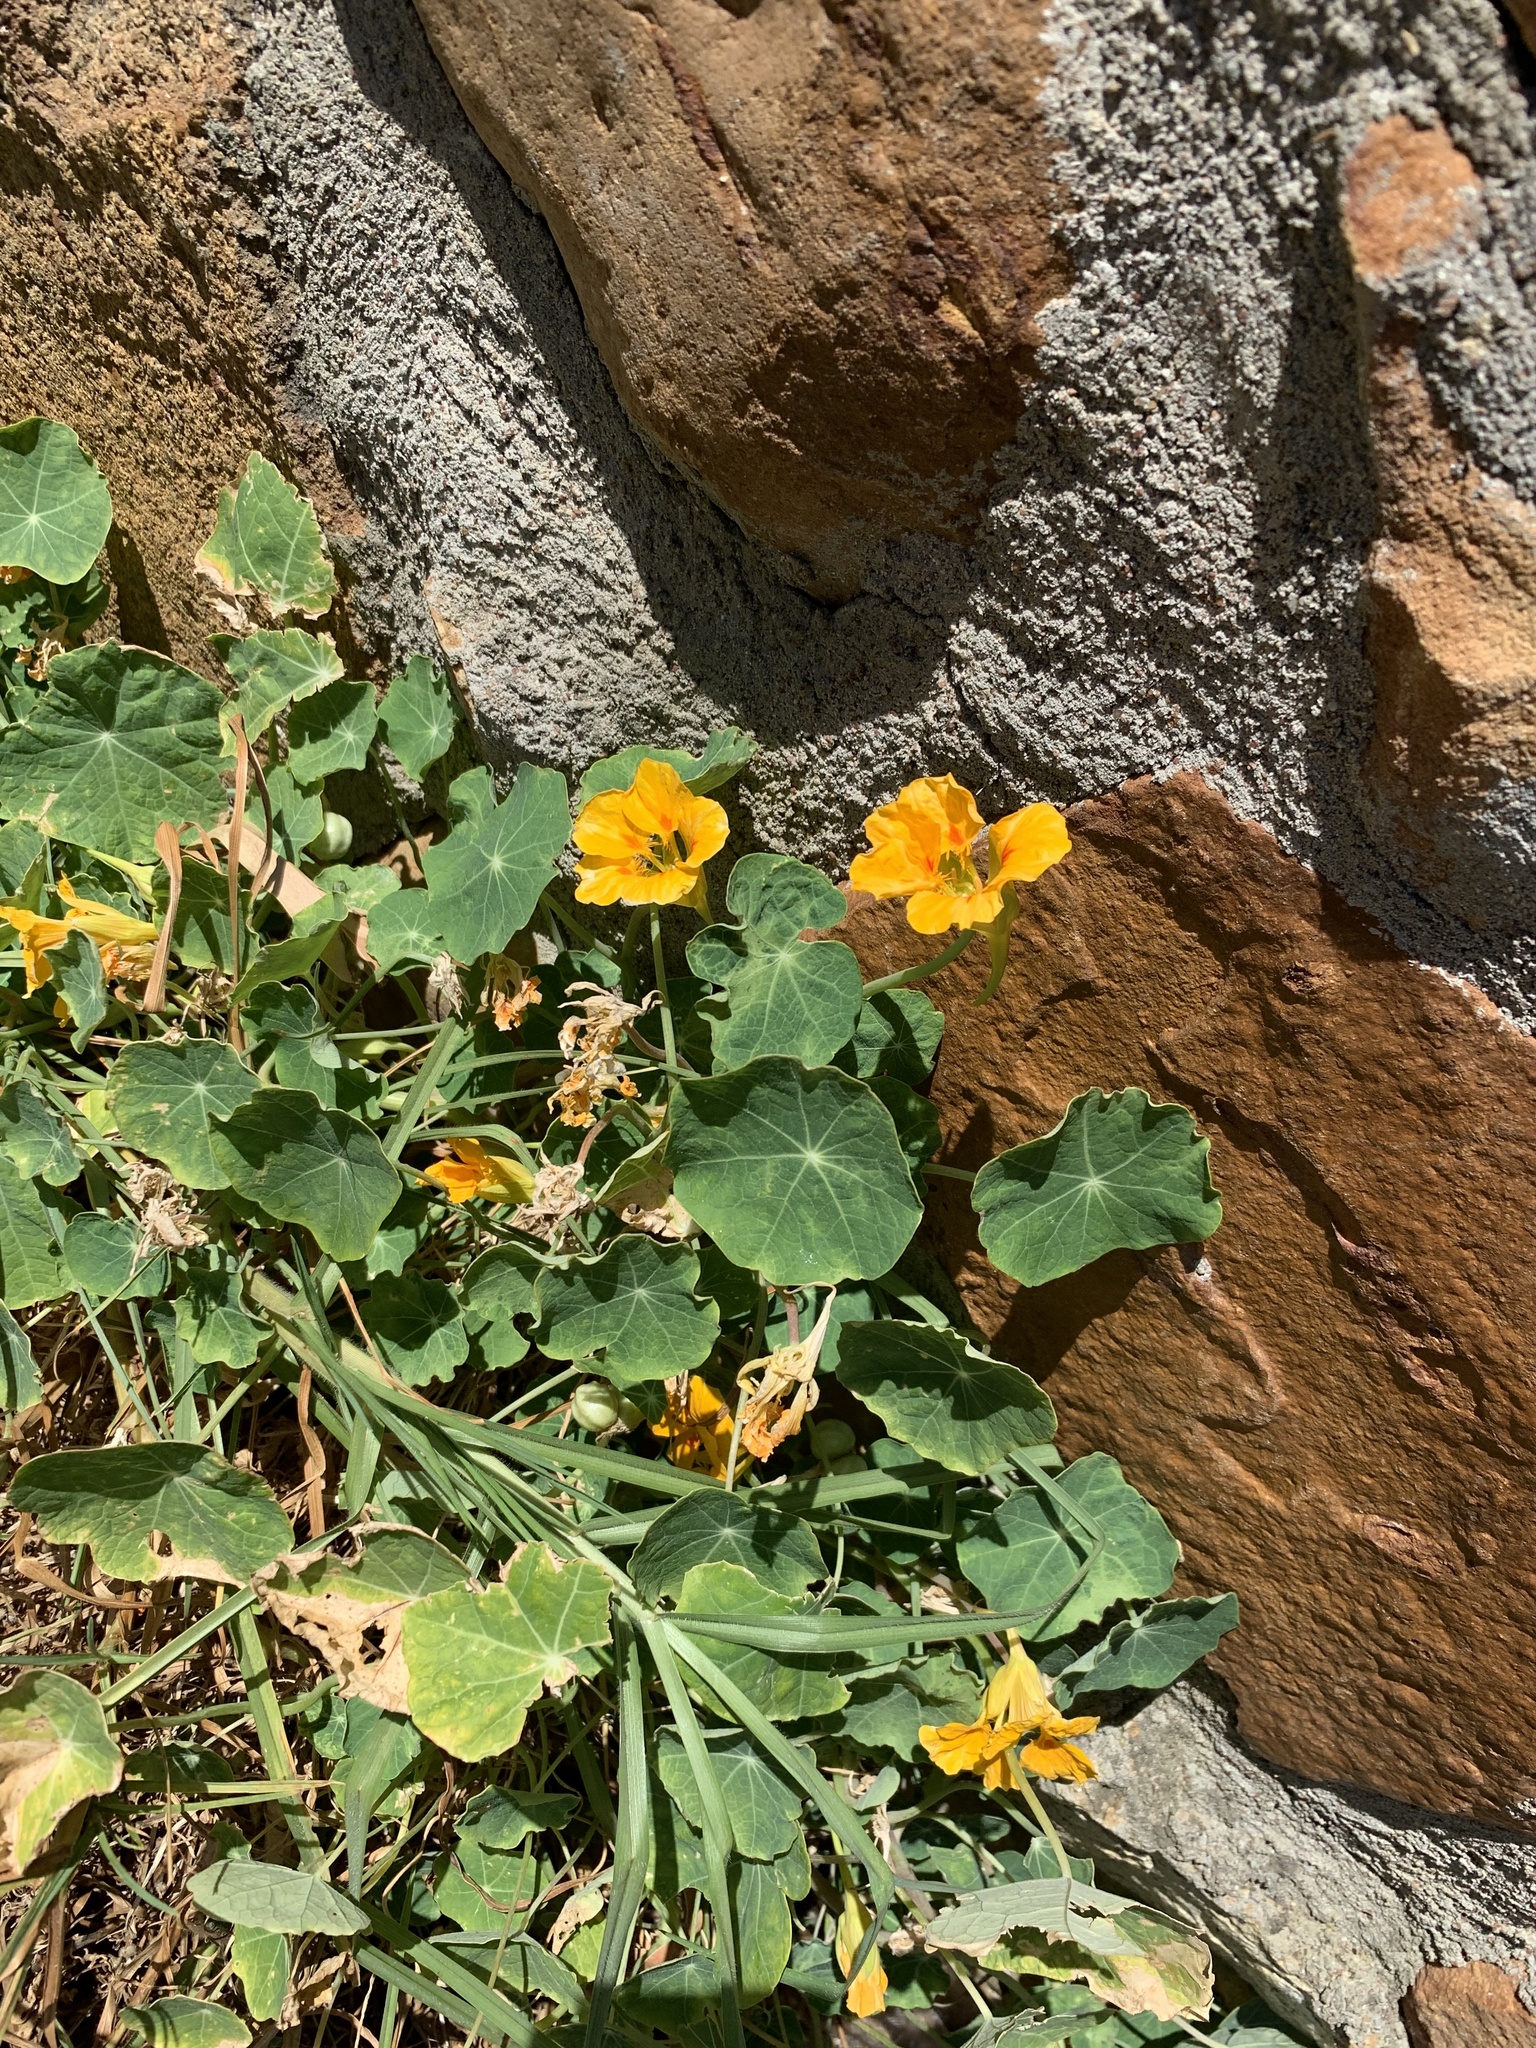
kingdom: Plantae
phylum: Tracheophyta
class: Magnoliopsida
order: Brassicales
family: Tropaeolaceae
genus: Tropaeolum
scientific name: Tropaeolum majus
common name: Nasturtium
